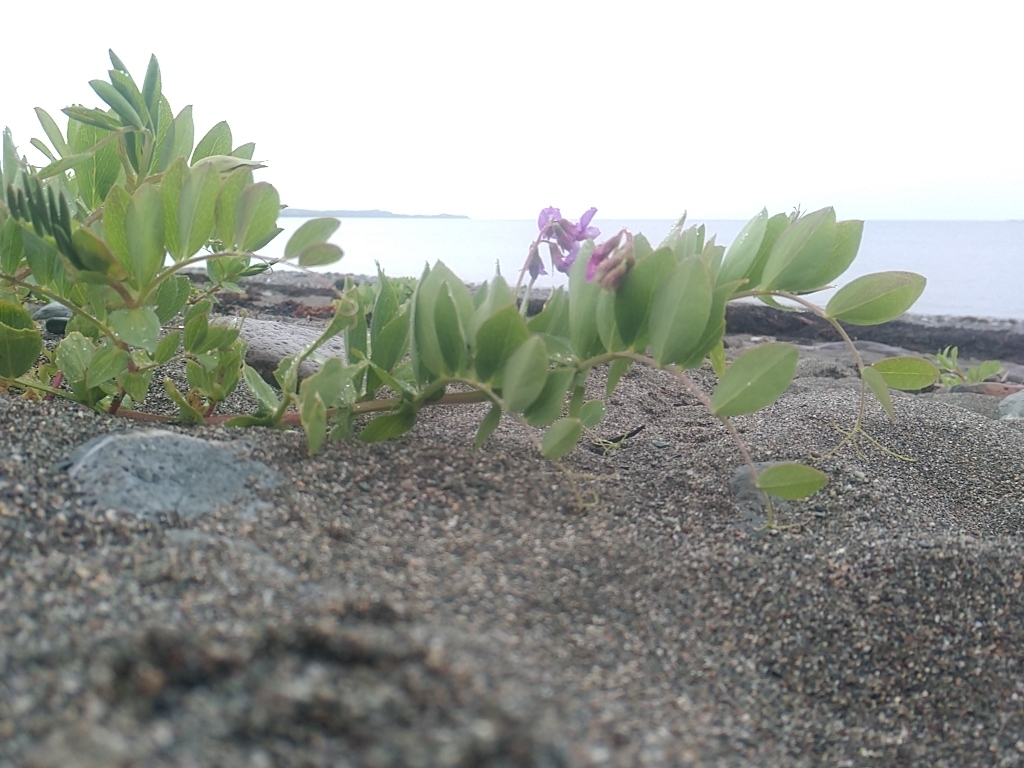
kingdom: Plantae
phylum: Tracheophyta
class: Magnoliopsida
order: Fabales
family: Fabaceae
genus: Lathyrus
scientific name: Lathyrus japonicus
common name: Sea pea
